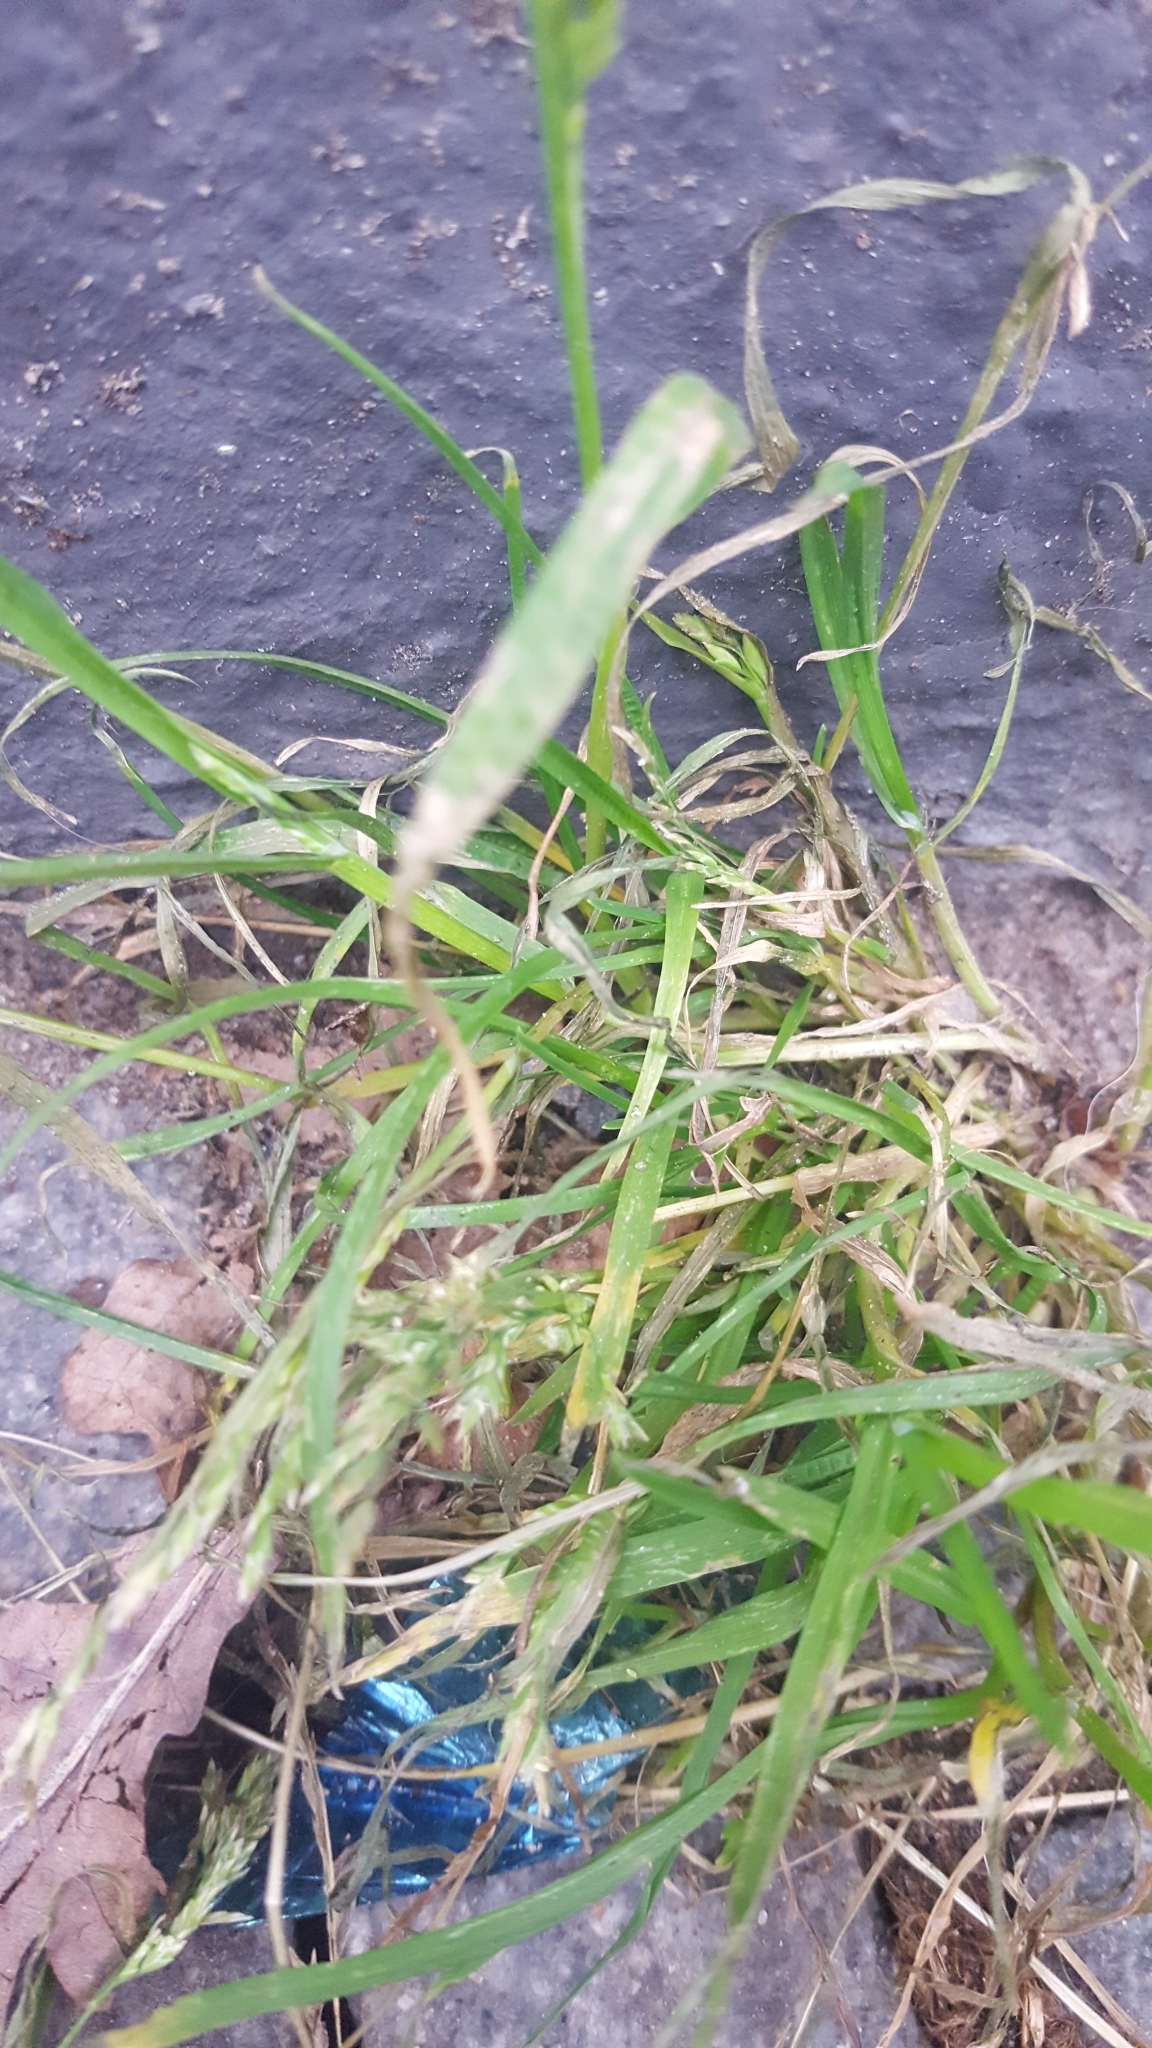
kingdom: Plantae
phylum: Tracheophyta
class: Liliopsida
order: Poales
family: Poaceae
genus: Poa
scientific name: Poa annua
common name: Annual bluegrass
